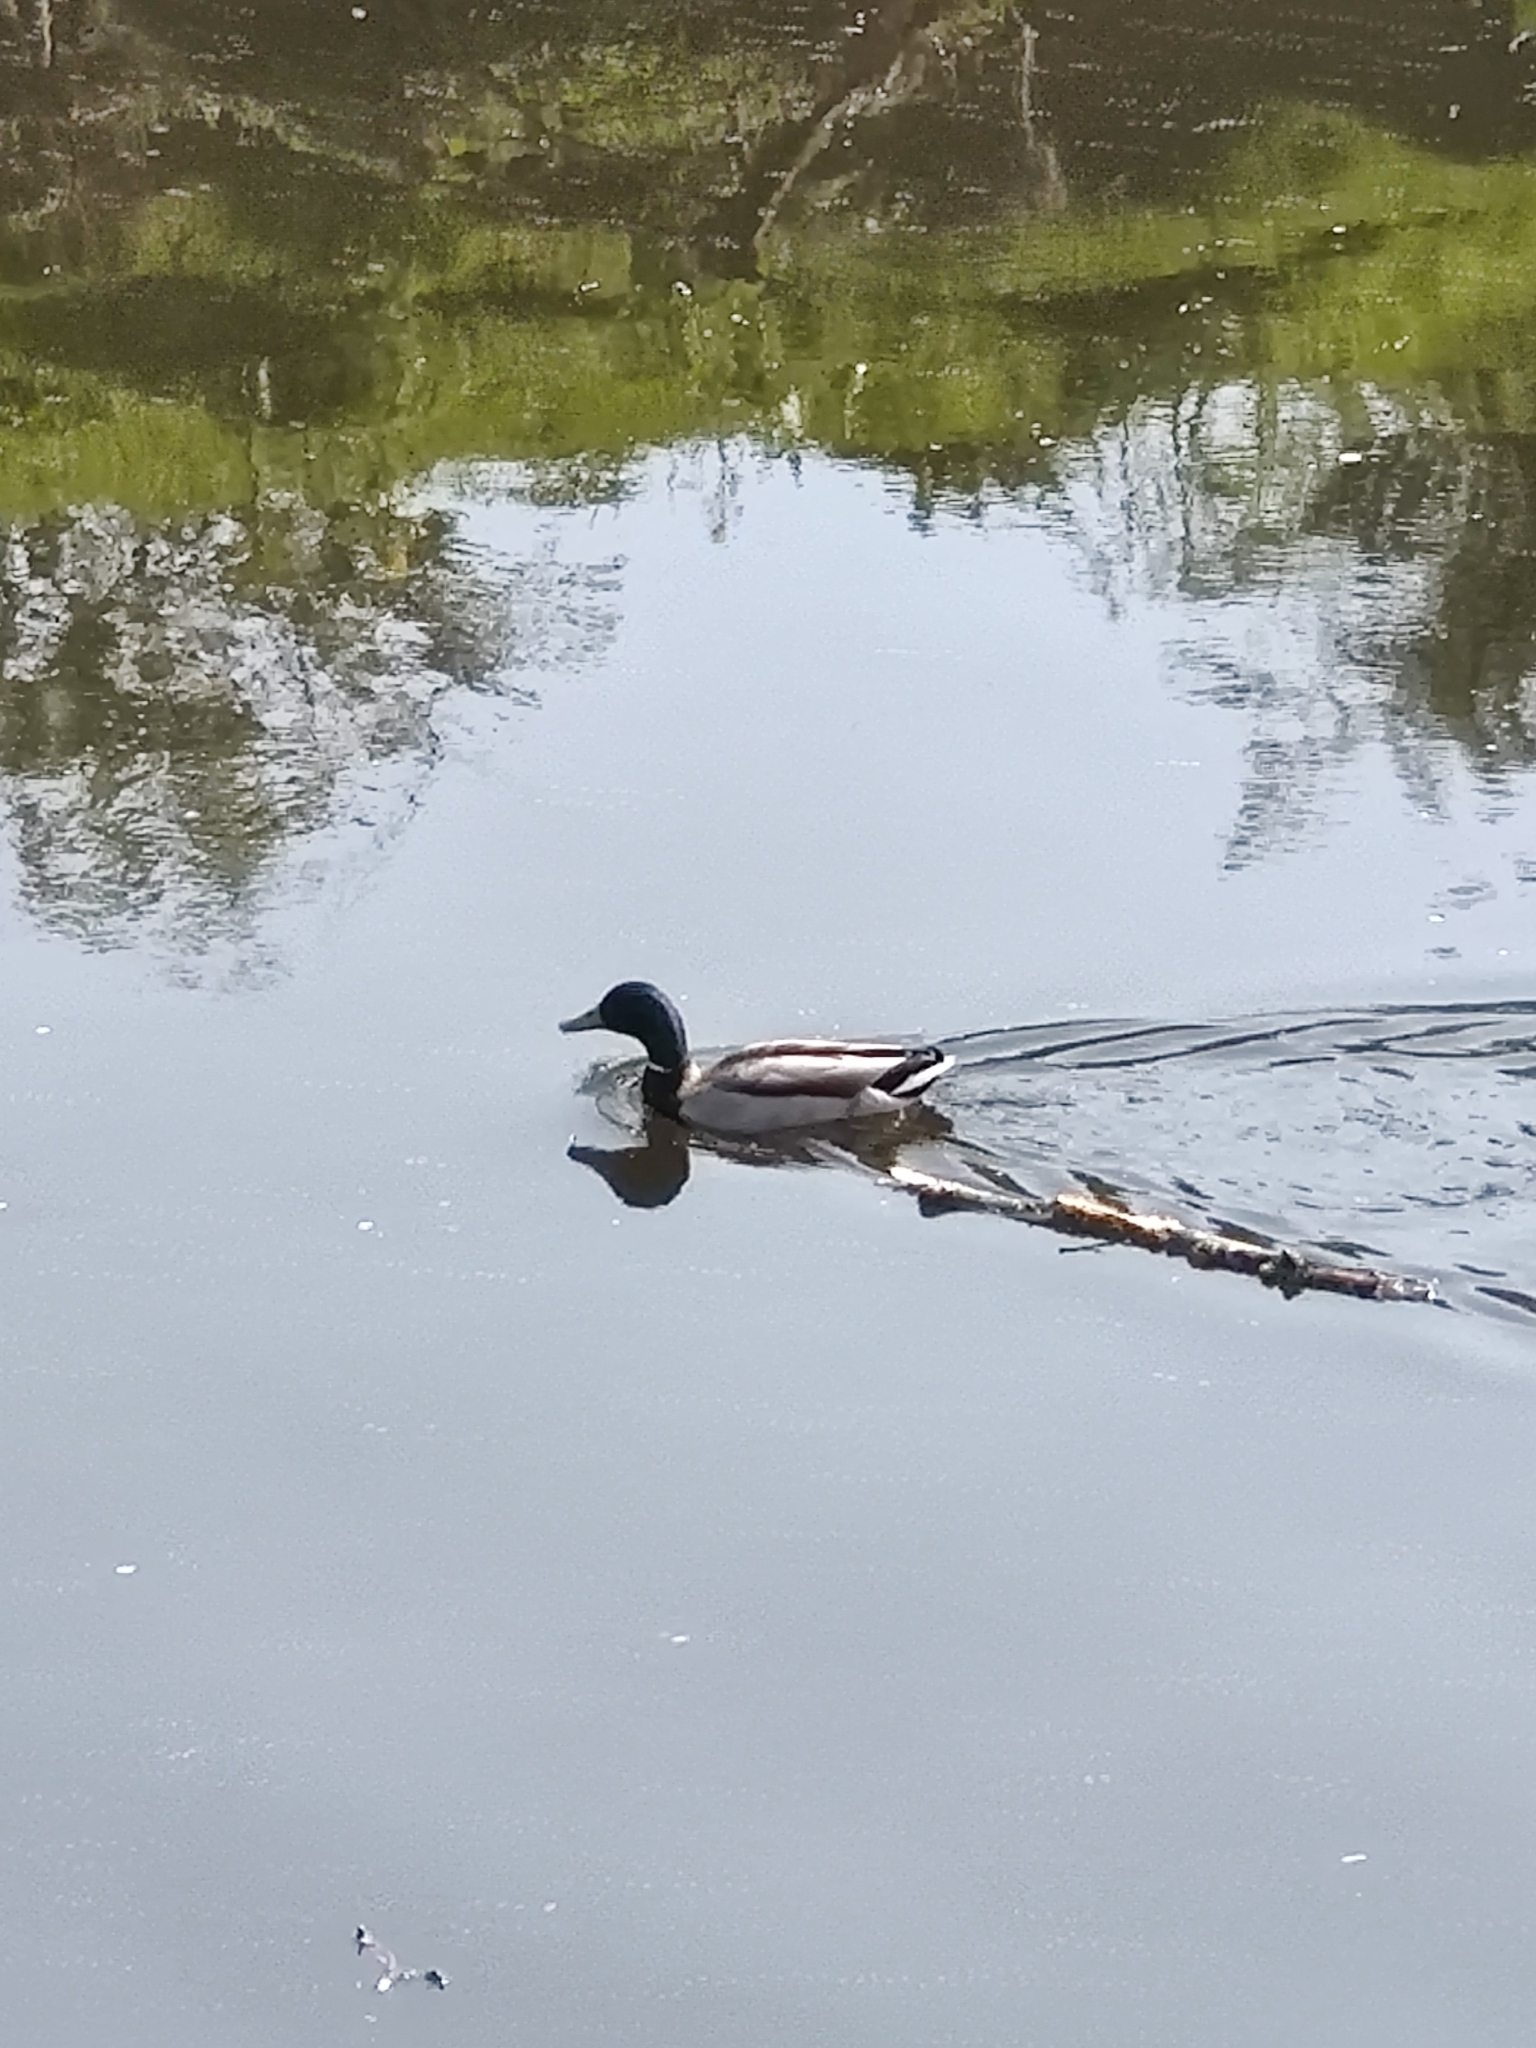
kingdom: Animalia
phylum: Chordata
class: Aves
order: Anseriformes
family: Anatidae
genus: Anas
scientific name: Anas platyrhynchos
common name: Mallard
